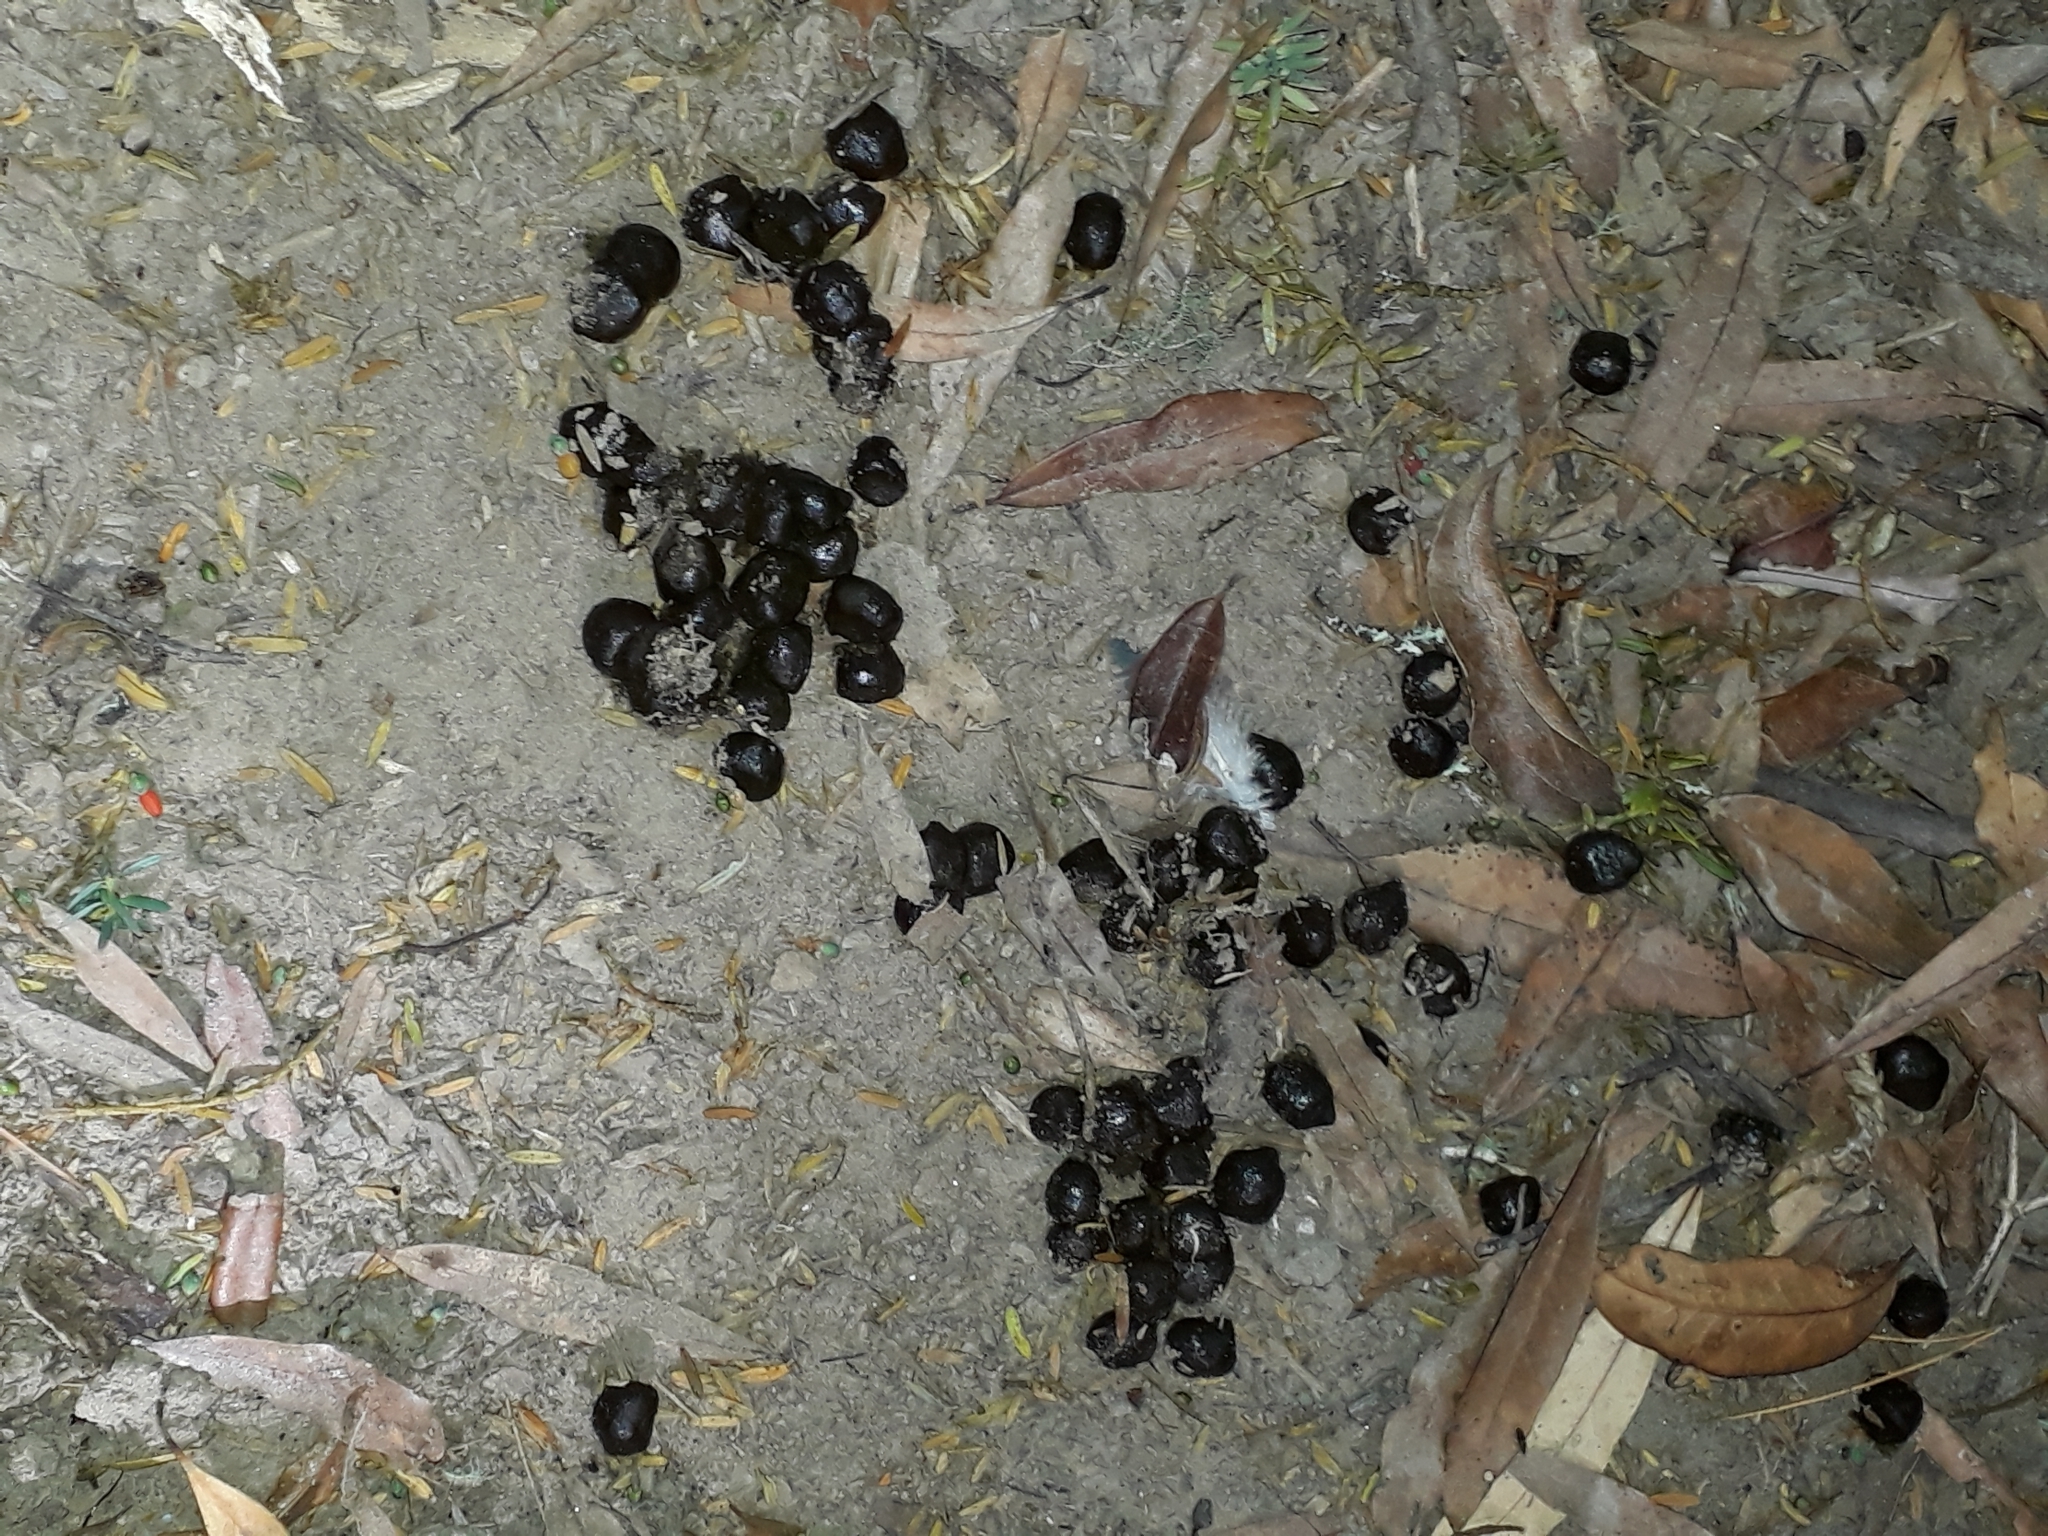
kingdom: Animalia
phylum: Chordata
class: Mammalia
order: Artiodactyla
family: Bovidae
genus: Capra
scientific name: Capra hircus
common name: Domestic goat
